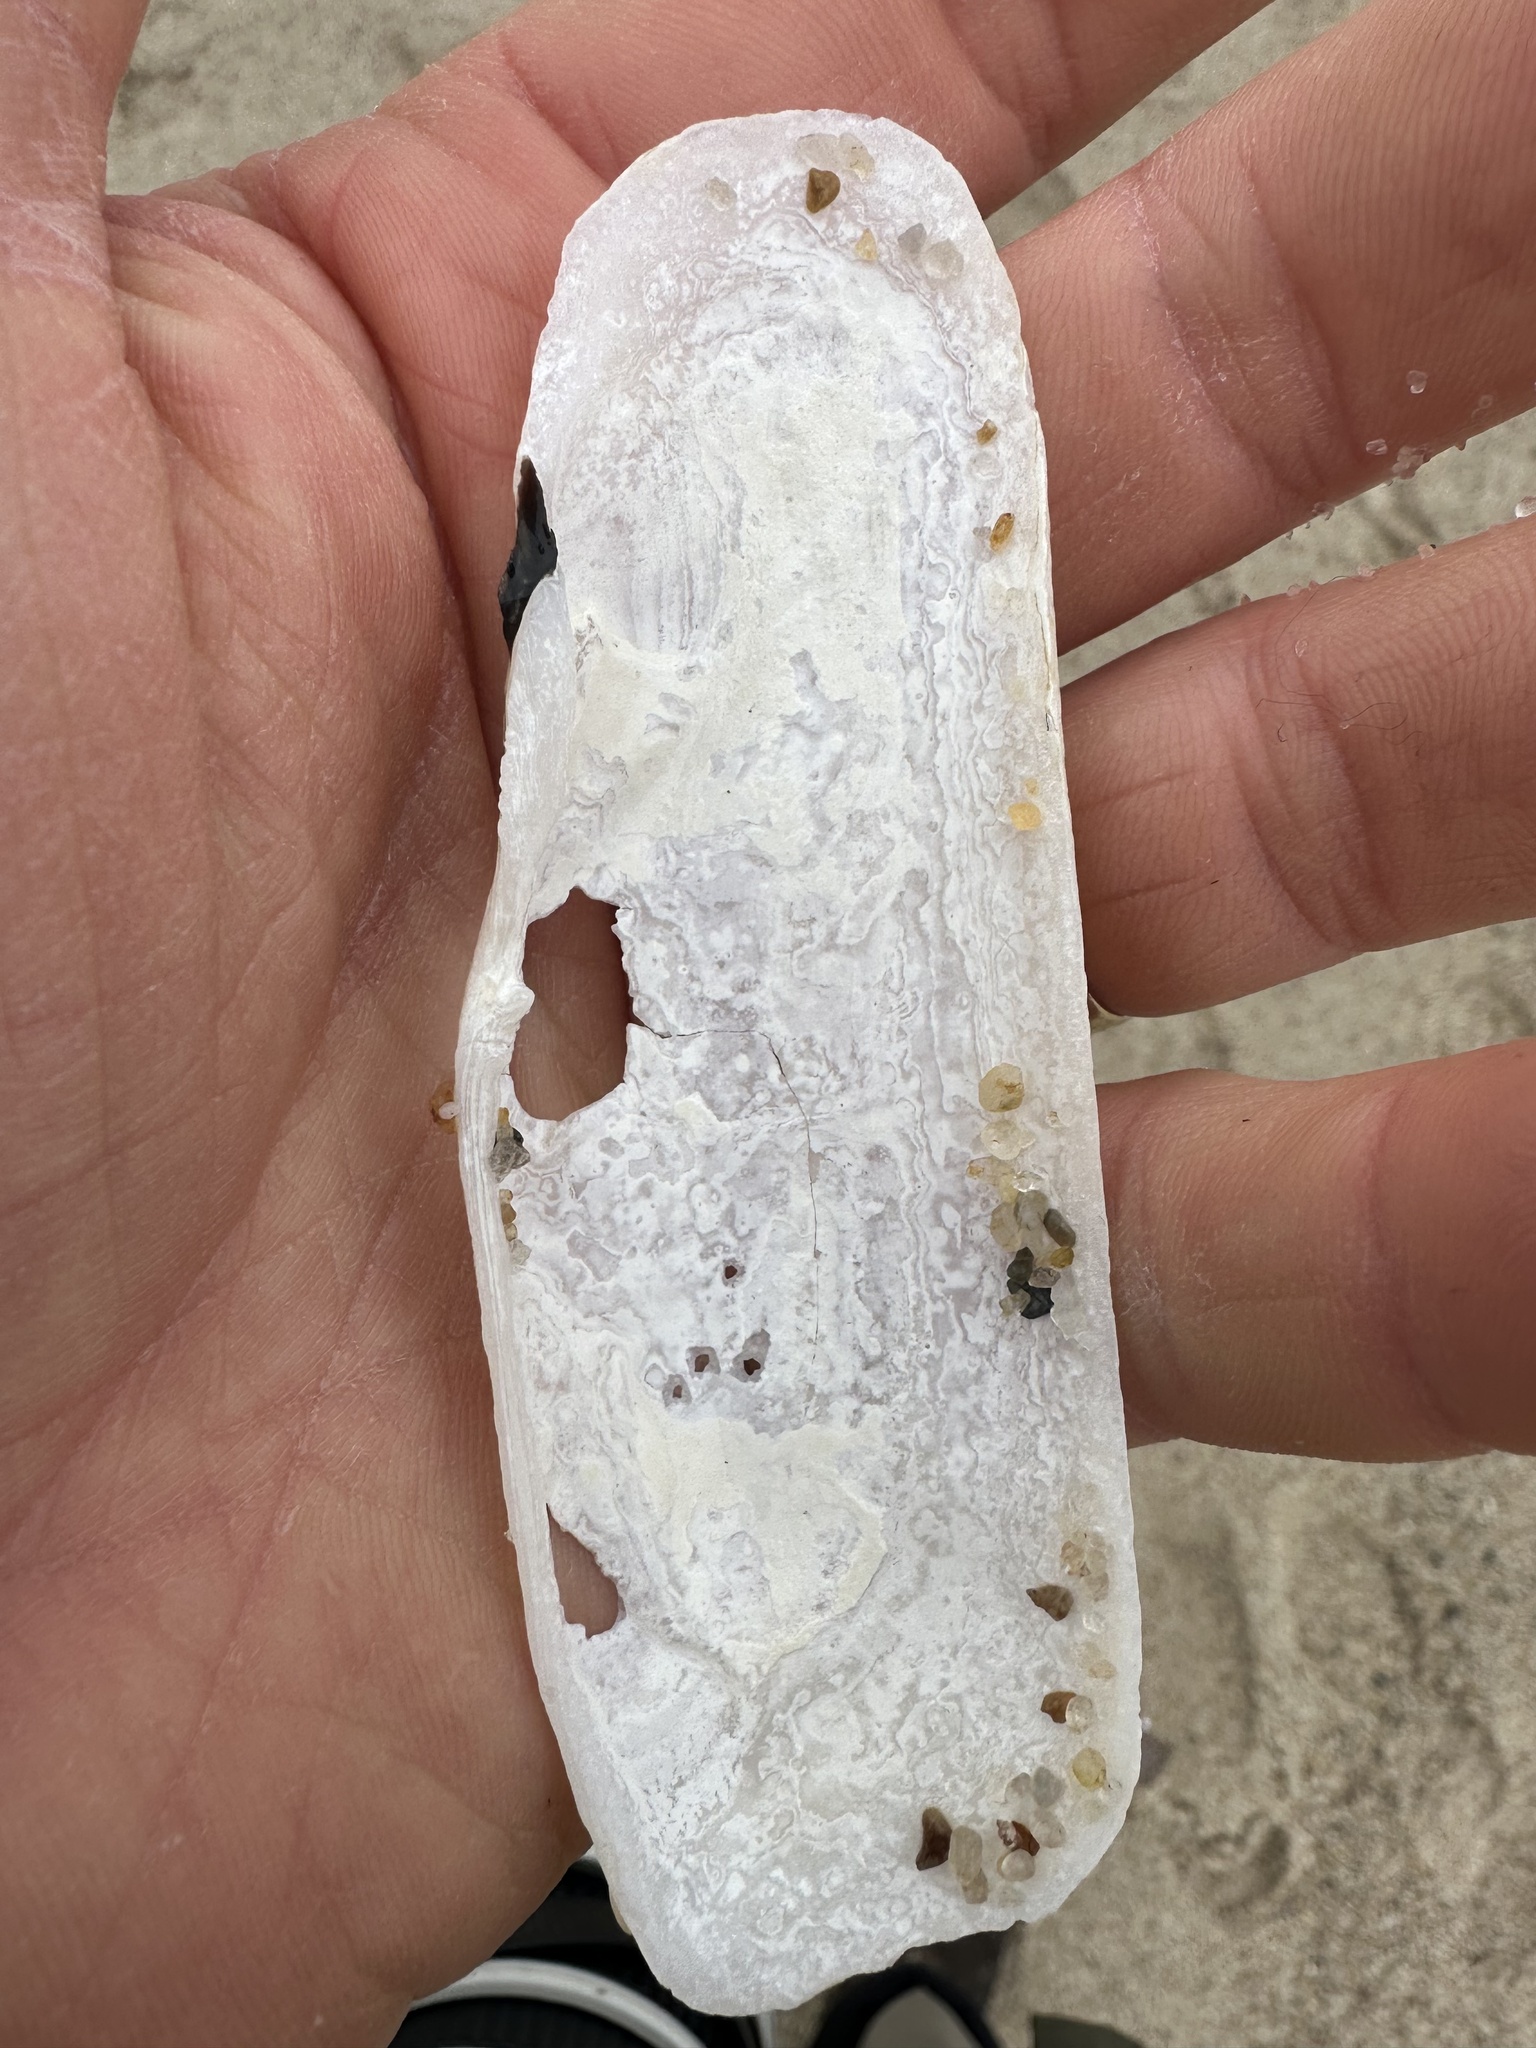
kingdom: Animalia
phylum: Mollusca
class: Bivalvia
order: Cardiida
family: Solecurtidae
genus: Tagelus
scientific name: Tagelus plebeius
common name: Stout tagelus
